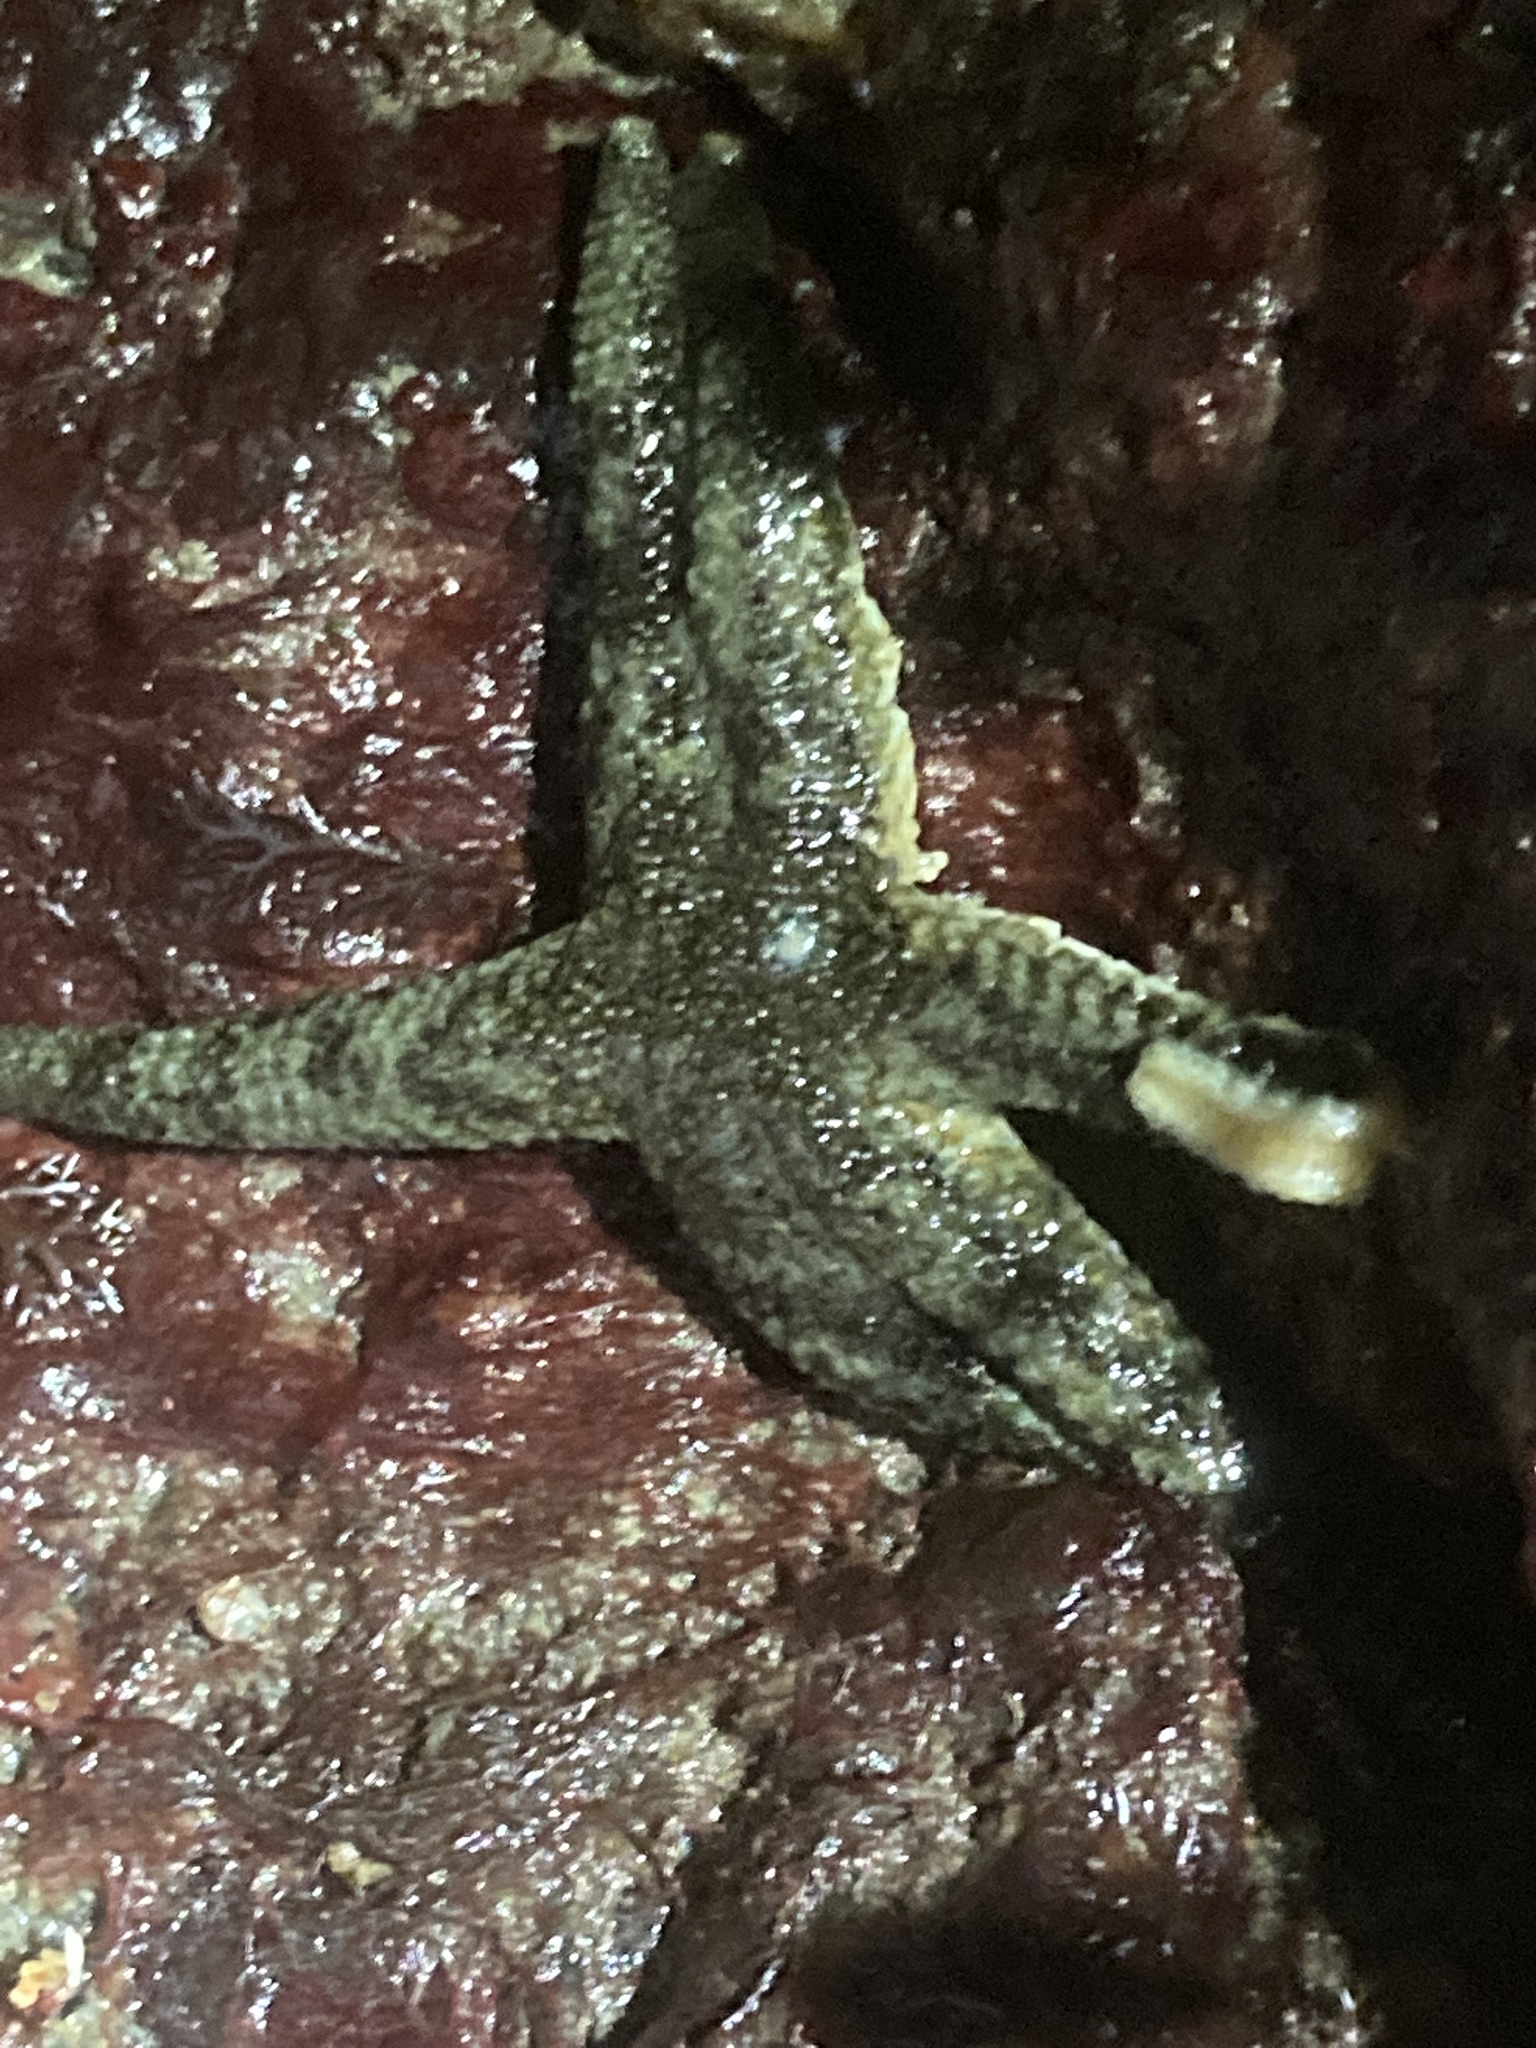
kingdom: Animalia
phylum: Echinodermata
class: Asteroidea
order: Forcipulatida
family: Asteriidae
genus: Leptasterias
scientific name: Leptasterias hexactis
